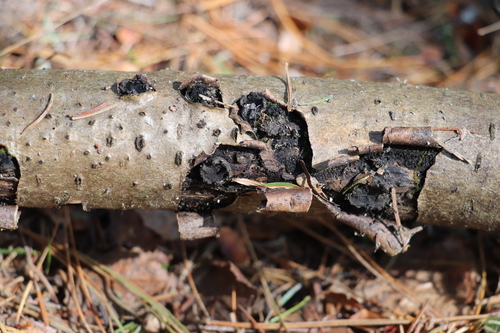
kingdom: Fungi
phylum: Ascomycota
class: Sordariomycetes
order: Xylariales
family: Graphostromataceae
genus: Biscogniauxia
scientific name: Biscogniauxia repanda
